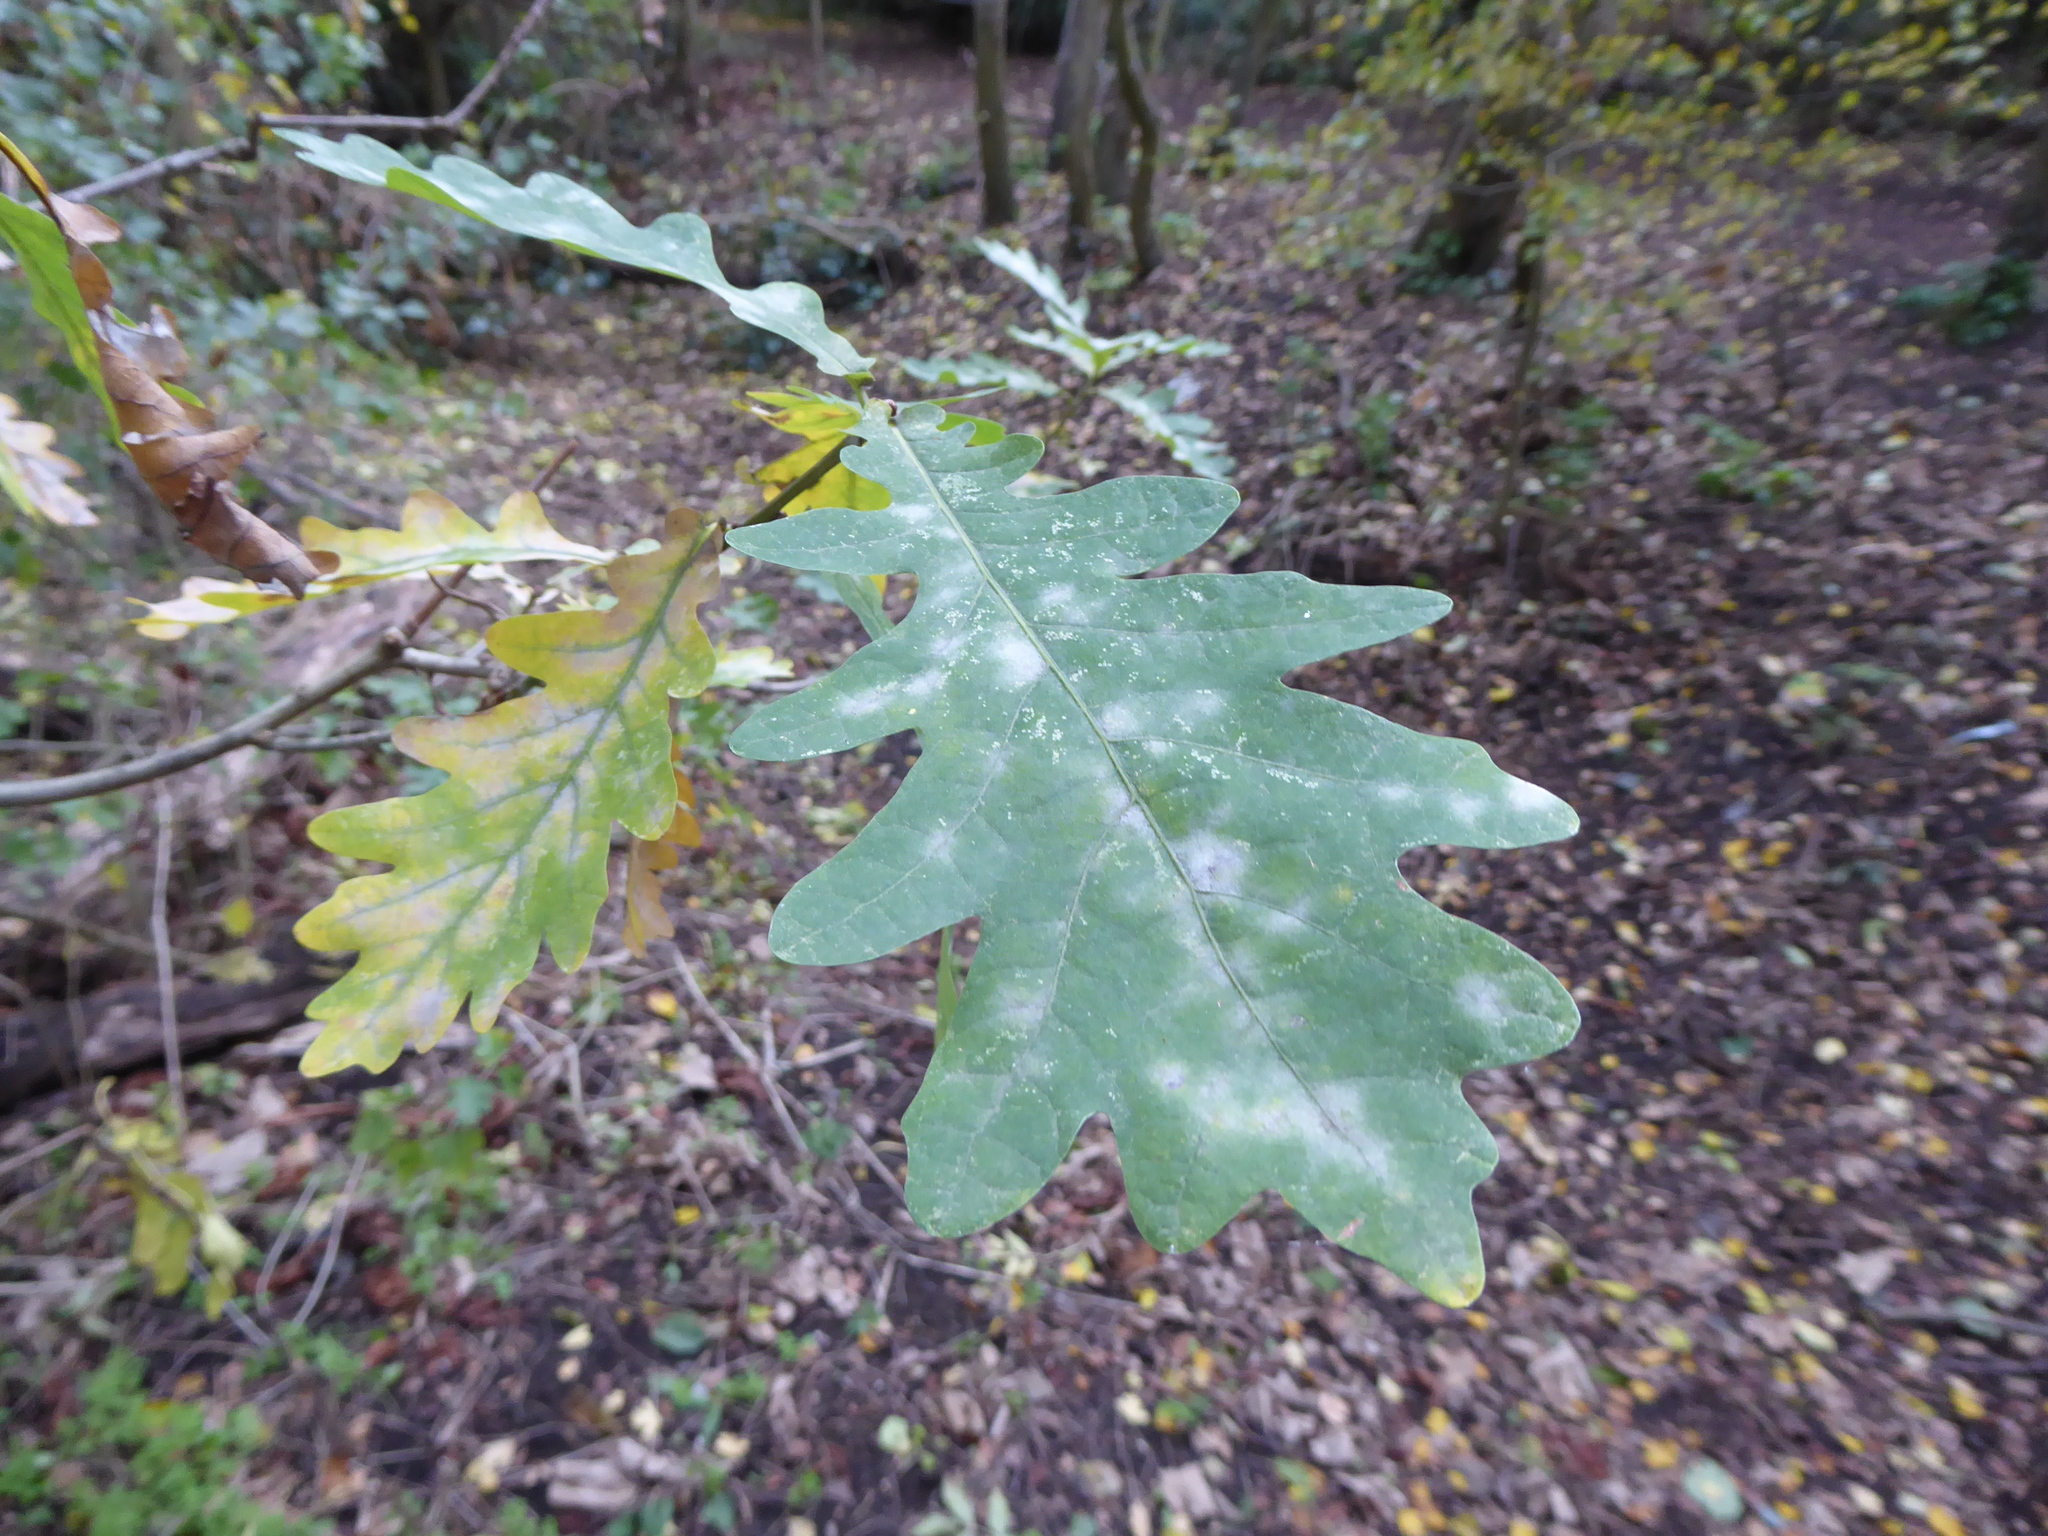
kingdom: Fungi
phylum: Ascomycota
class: Leotiomycetes
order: Helotiales
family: Erysiphaceae
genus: Erysiphe
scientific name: Erysiphe alphitoides
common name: Oak mildew
